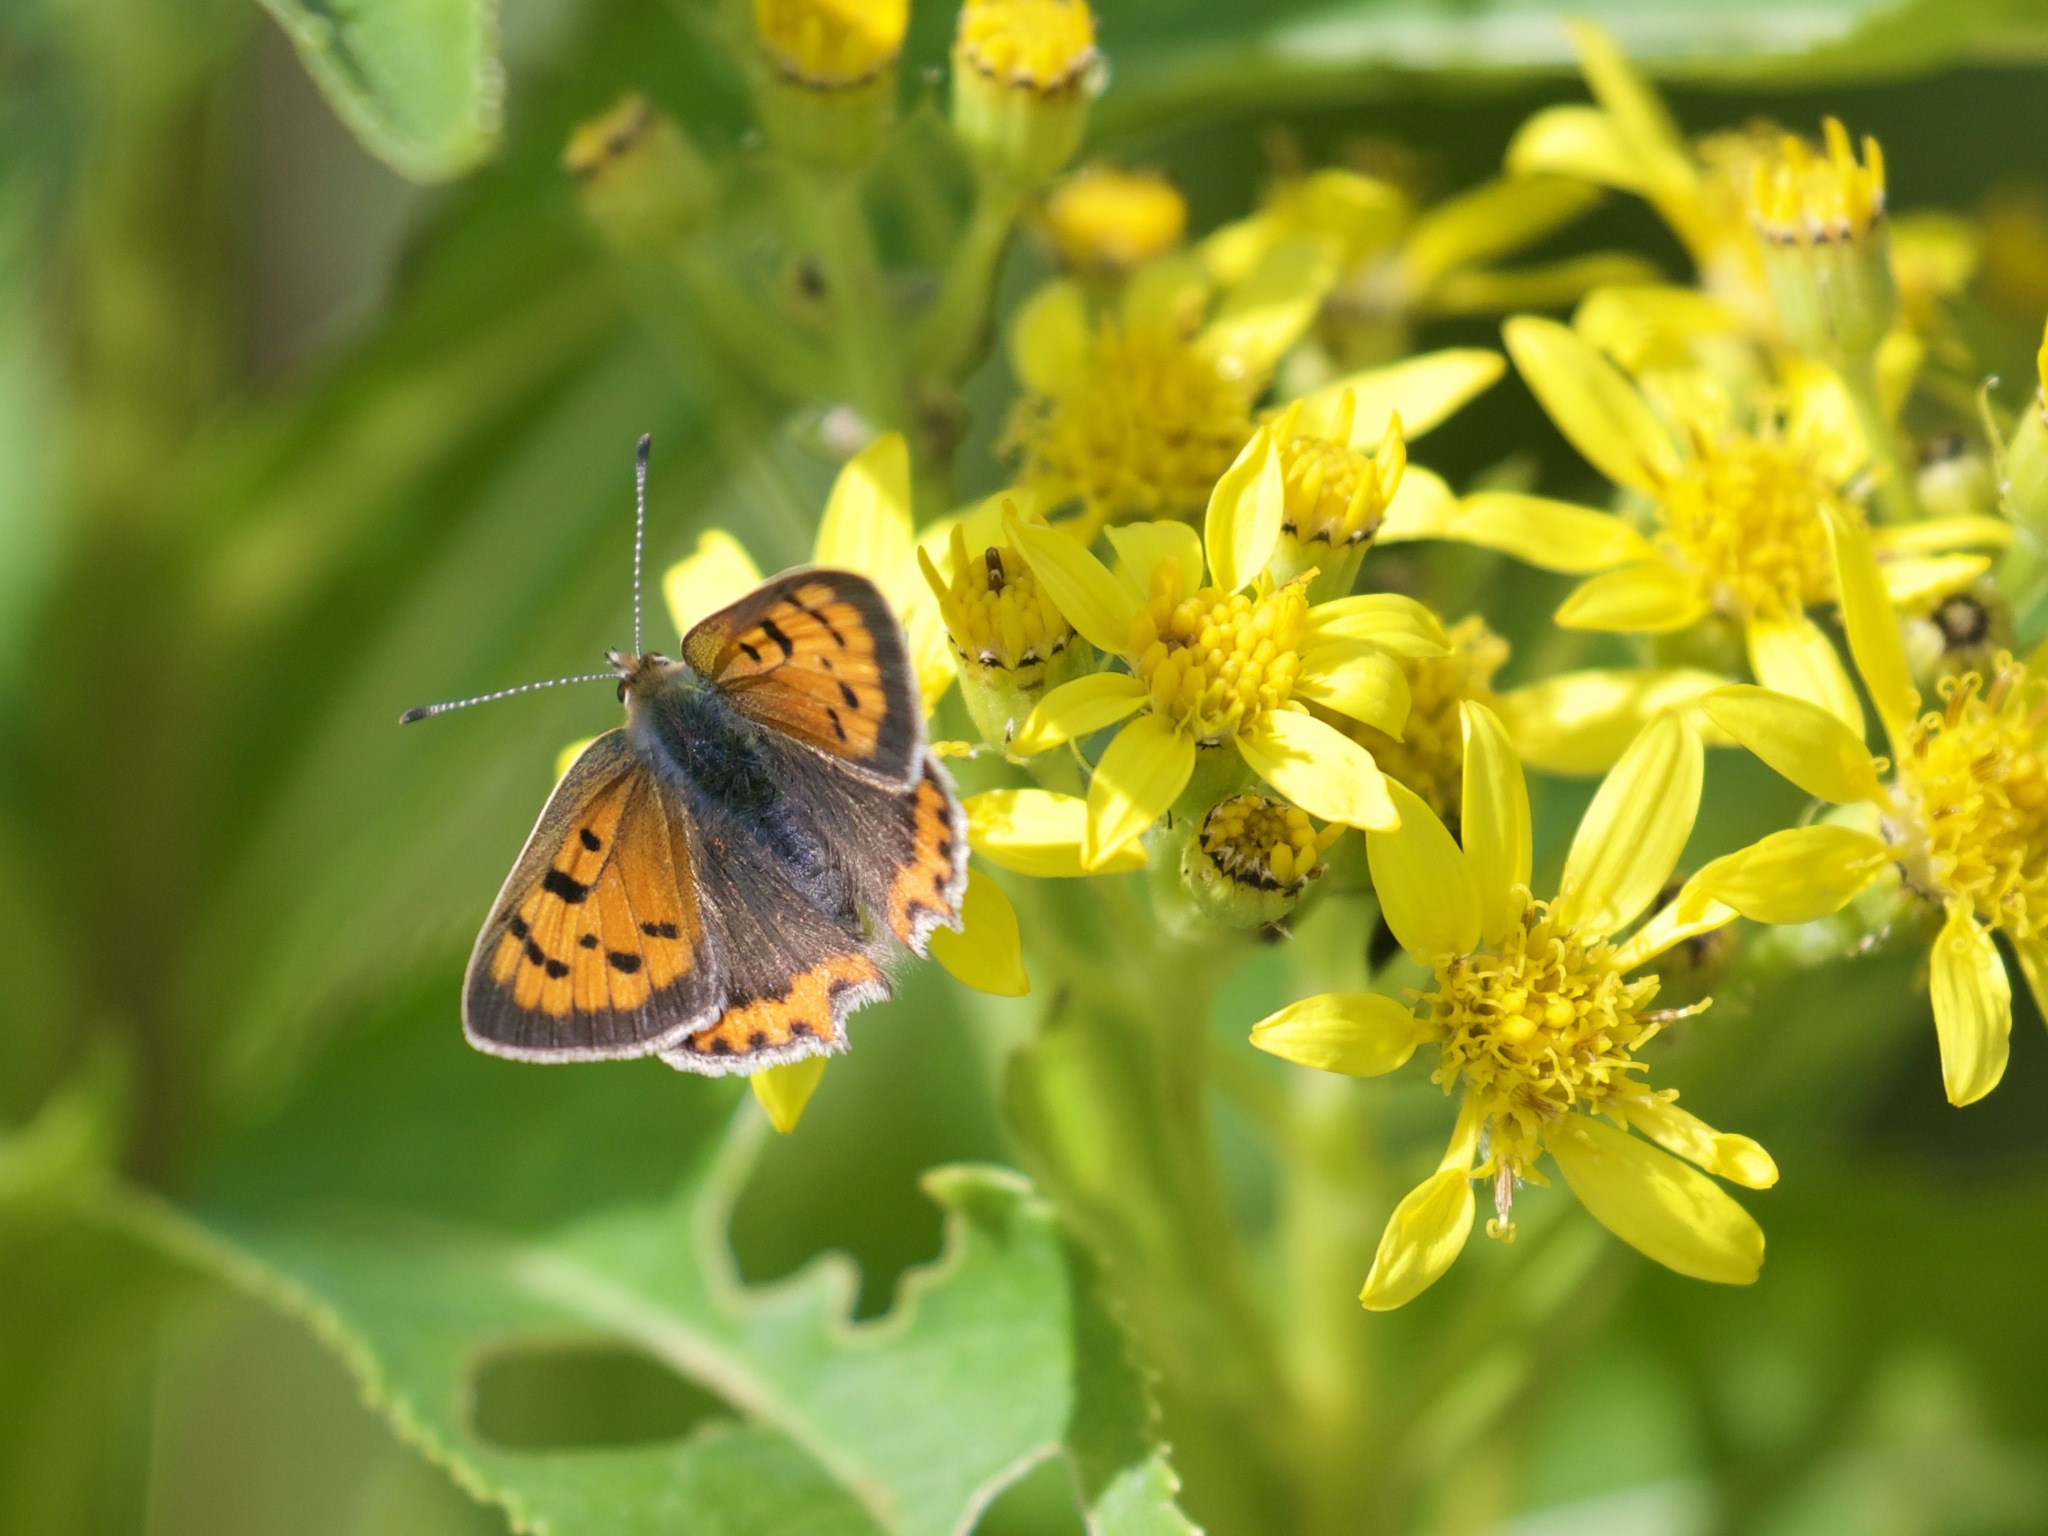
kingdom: Animalia
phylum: Arthropoda
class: Insecta
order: Lepidoptera
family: Lycaenidae
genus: Lycaena
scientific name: Lycaena phlaeas
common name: Small copper
